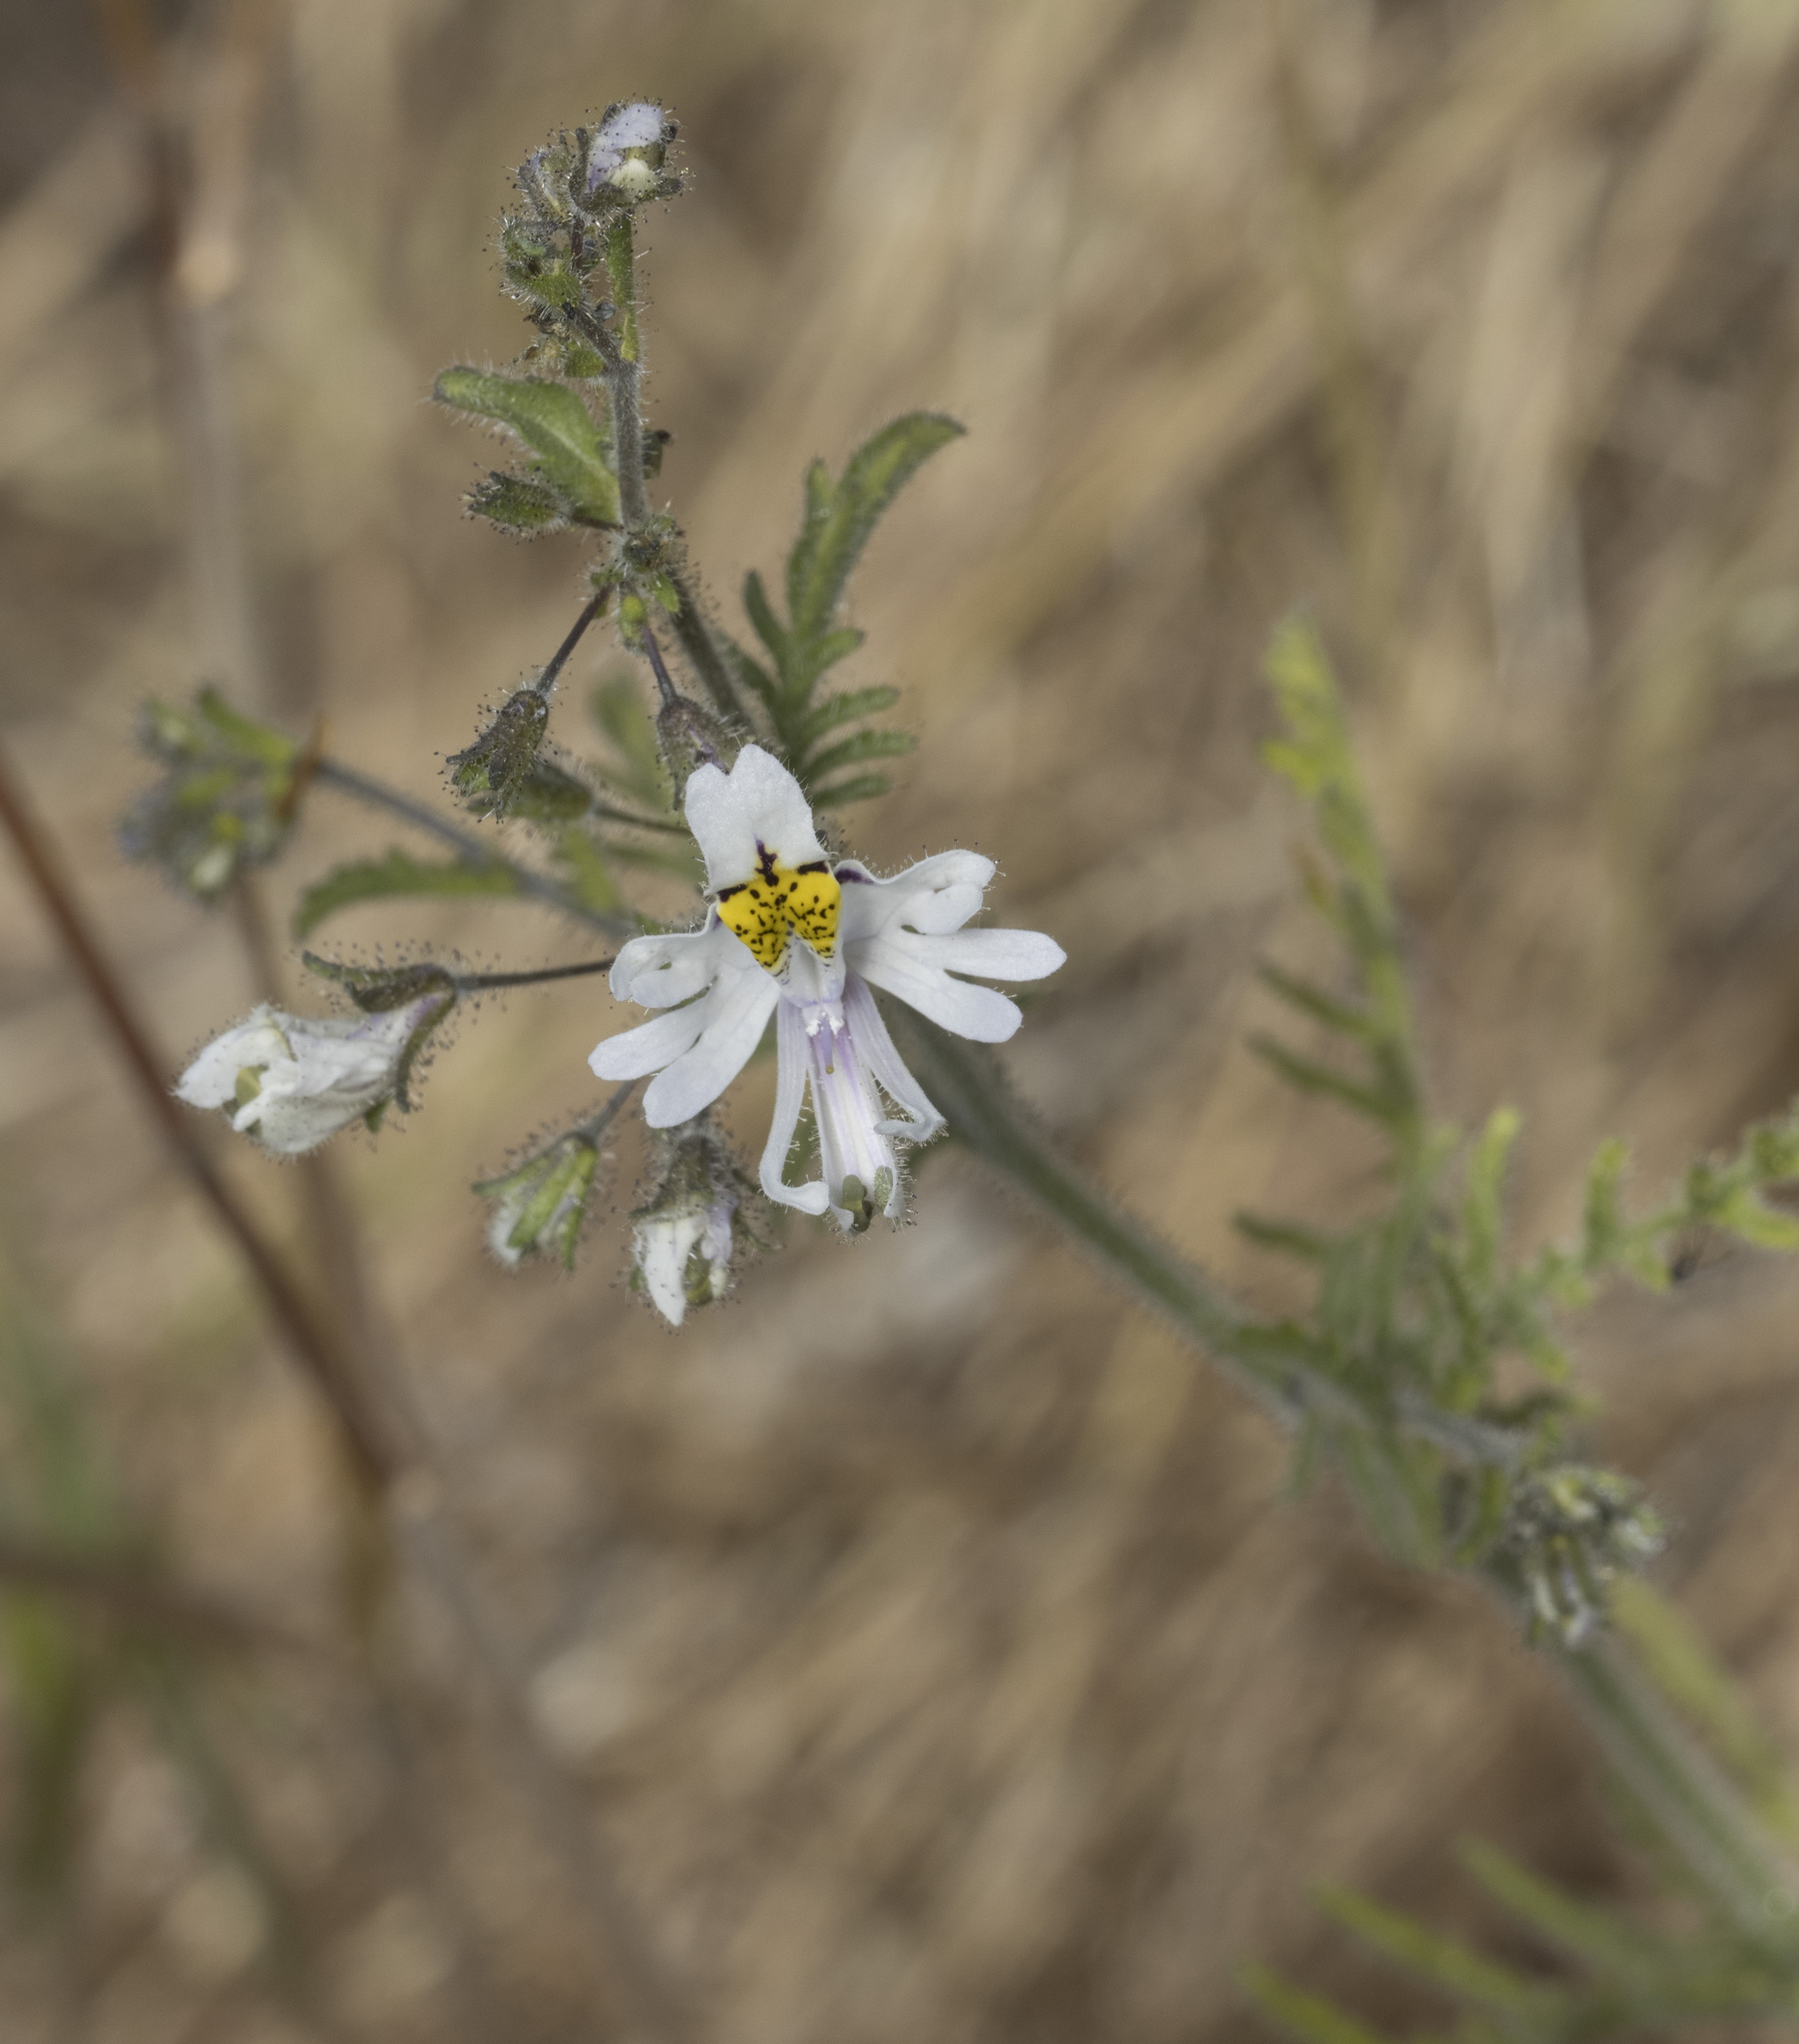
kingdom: Plantae
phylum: Tracheophyta
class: Magnoliopsida
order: Solanales
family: Solanaceae
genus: Schizanthus
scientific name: Schizanthus pinnatus
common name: Poor-man's-orchid
